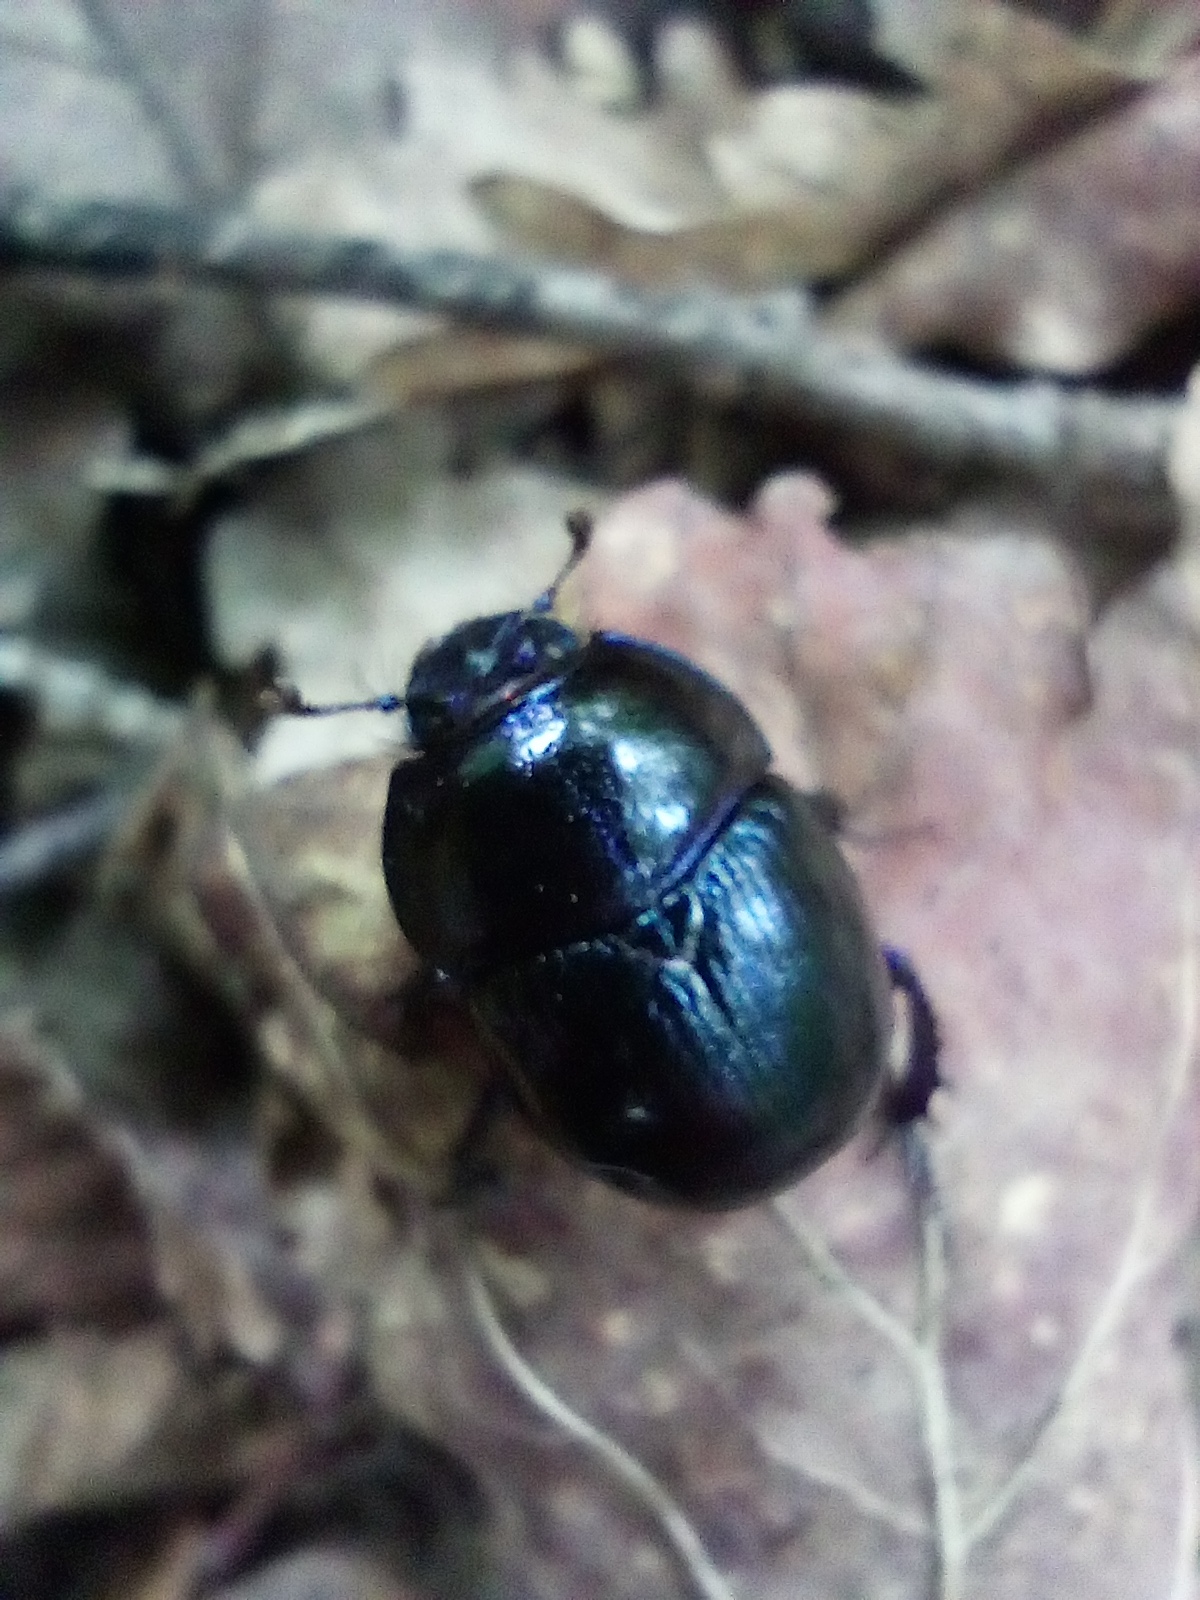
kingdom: Animalia
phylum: Arthropoda
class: Insecta
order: Coleoptera
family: Geotrupidae
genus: Anoplotrupes
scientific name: Anoplotrupes stercorosus
